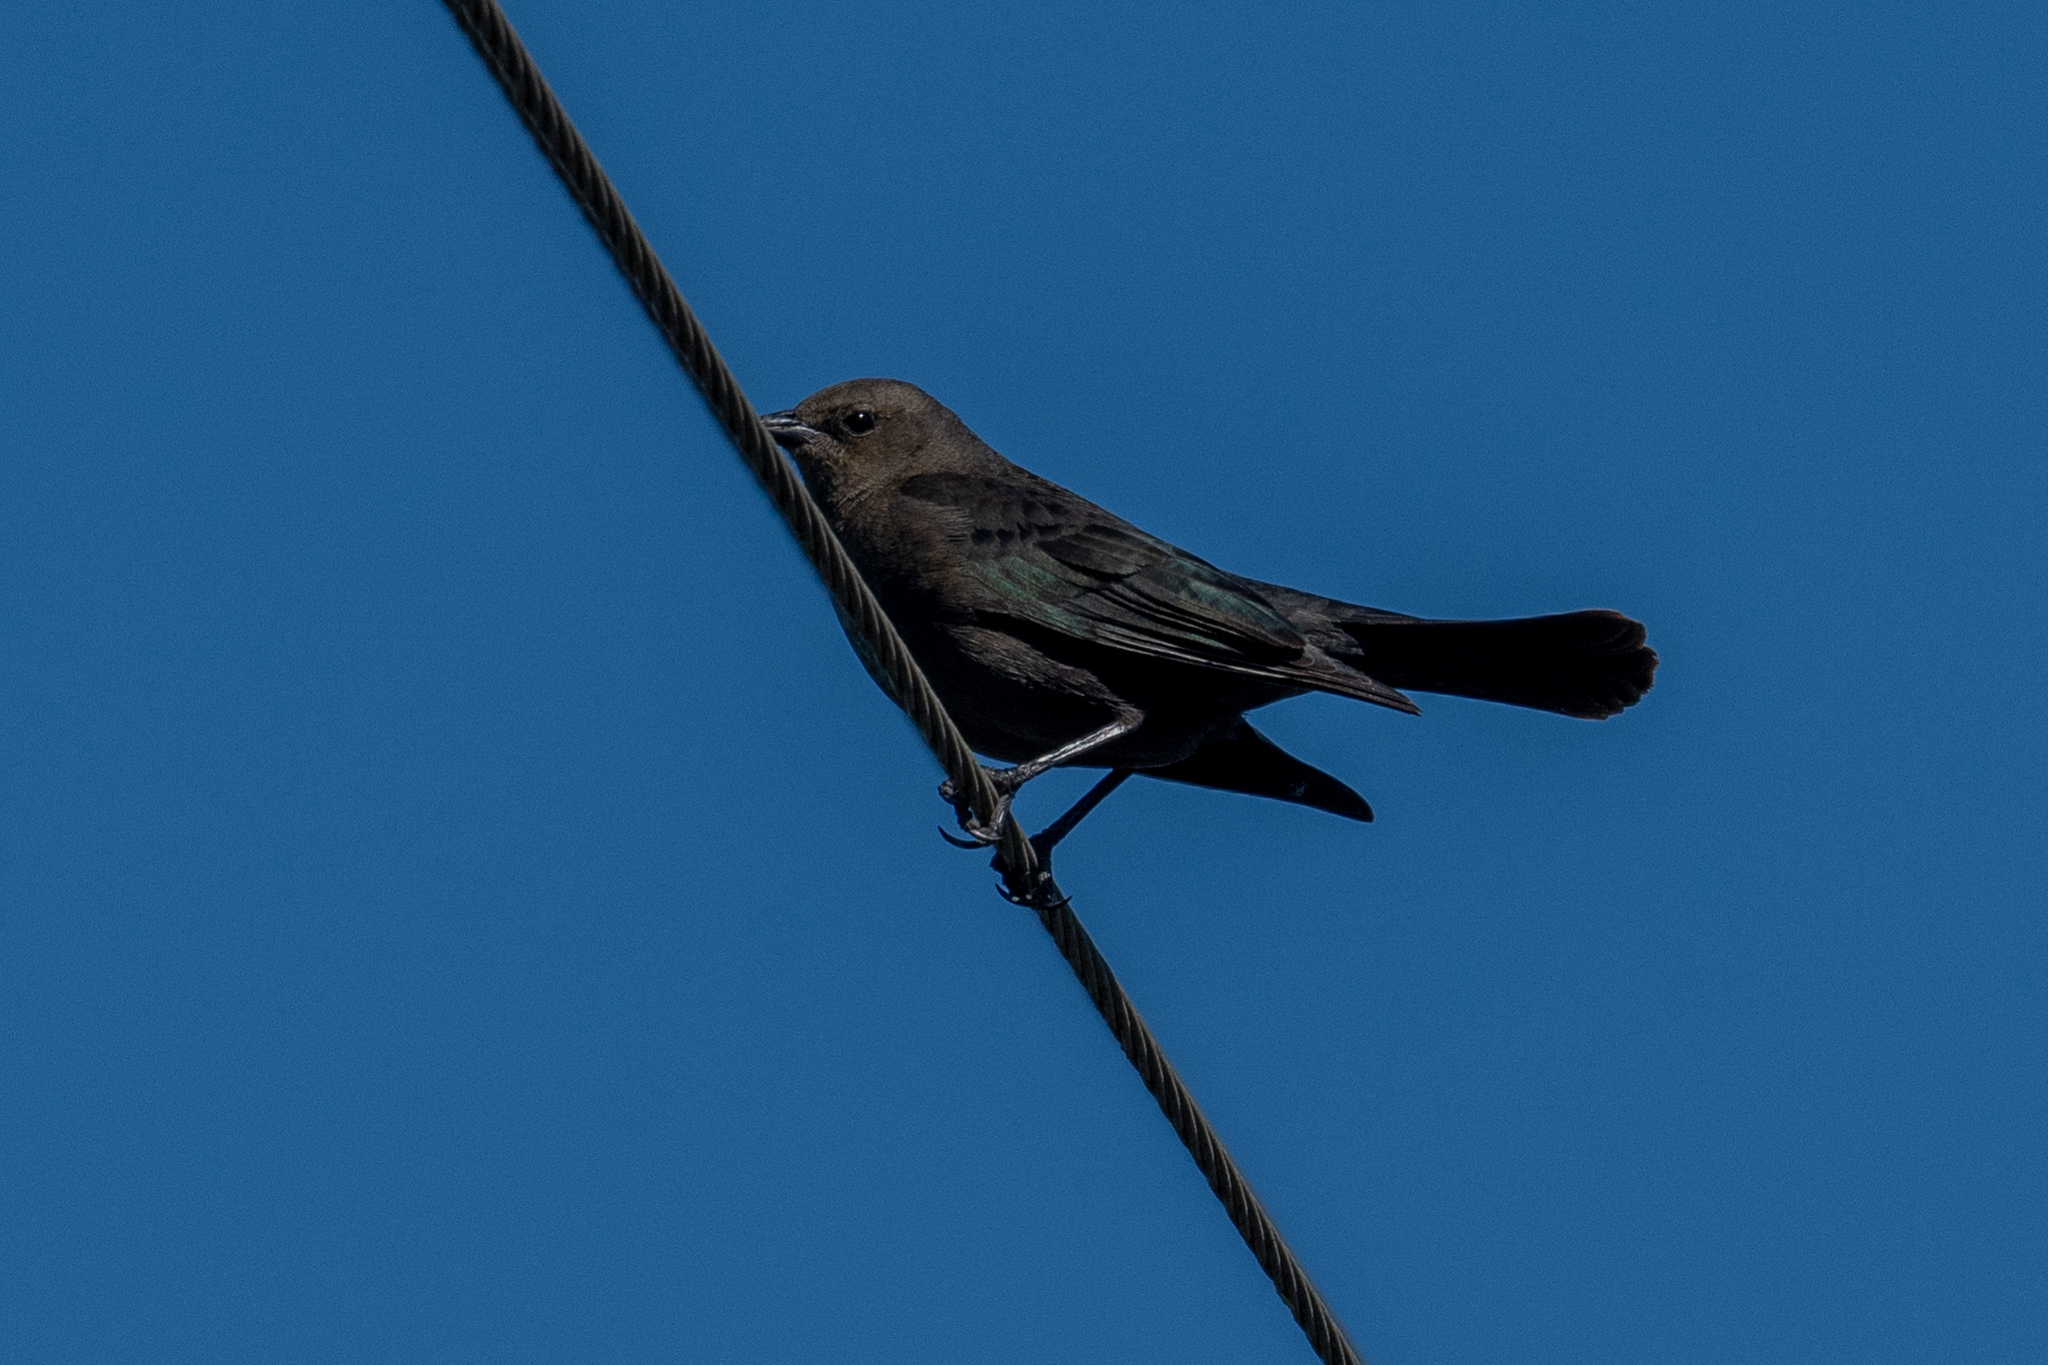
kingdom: Animalia
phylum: Chordata
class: Aves
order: Passeriformes
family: Icteridae
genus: Euphagus
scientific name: Euphagus cyanocephalus
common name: Brewer's blackbird
